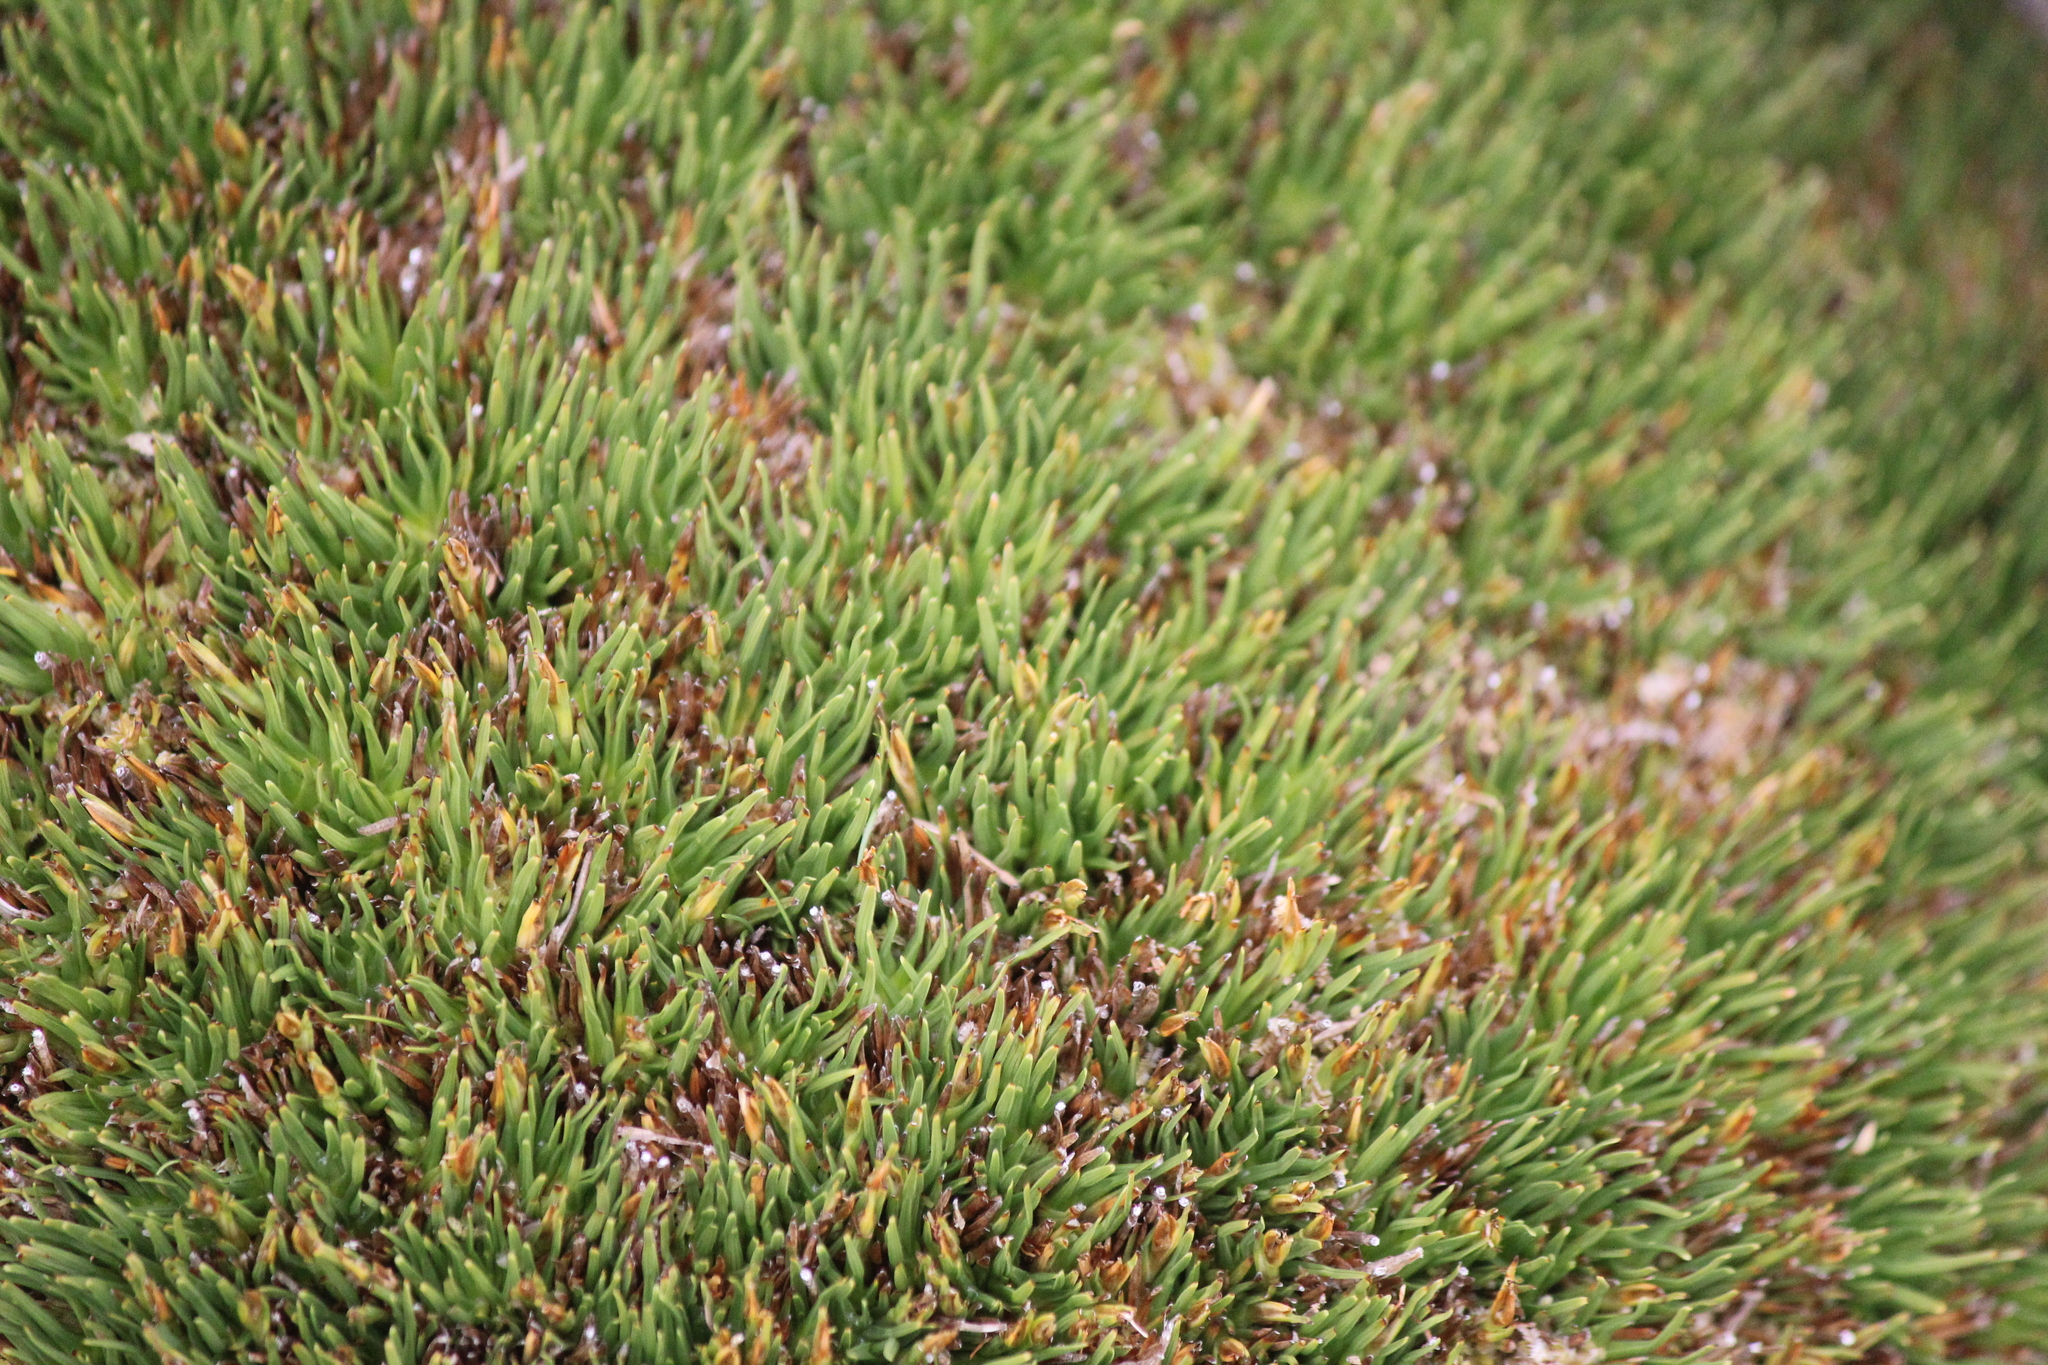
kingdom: Plantae
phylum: Tracheophyta
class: Liliopsida
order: Poales
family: Cyperaceae
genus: Oreobolus
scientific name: Oreobolus pectinatus
